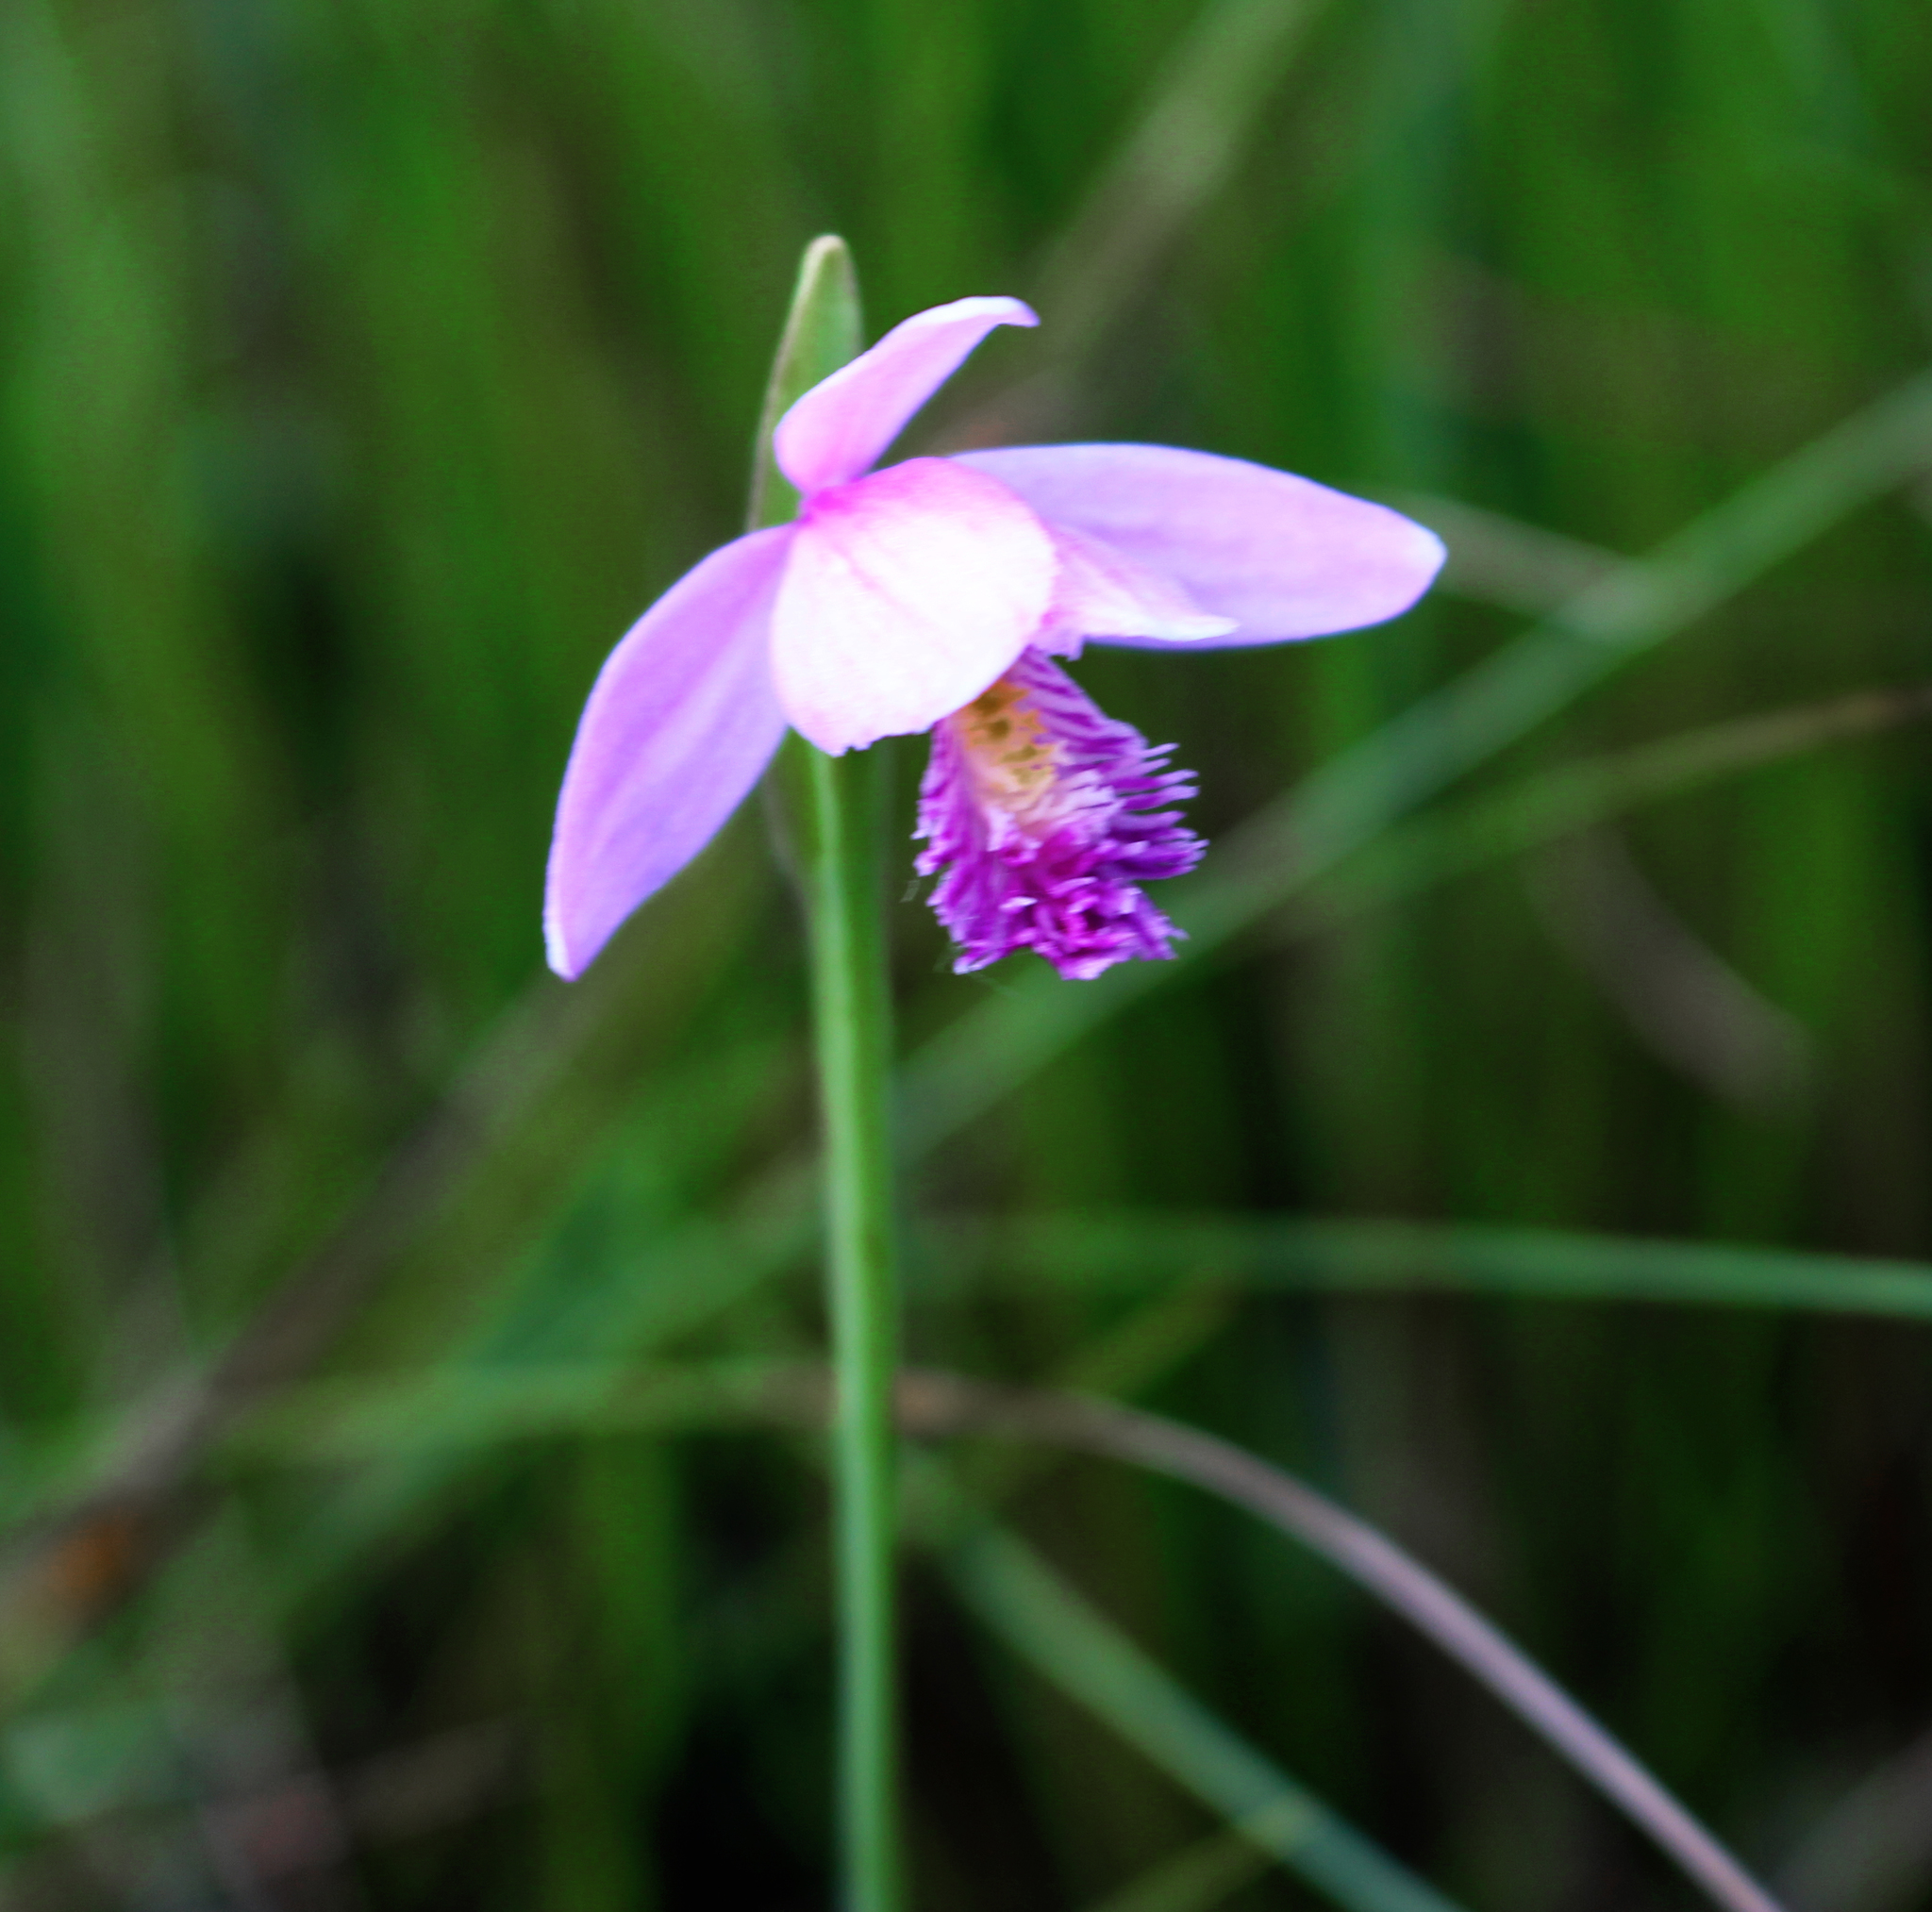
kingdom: Plantae
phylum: Tracheophyta
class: Liliopsida
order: Asparagales
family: Orchidaceae
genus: Pogonia
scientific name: Pogonia ophioglossoides
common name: Rose pogonia
